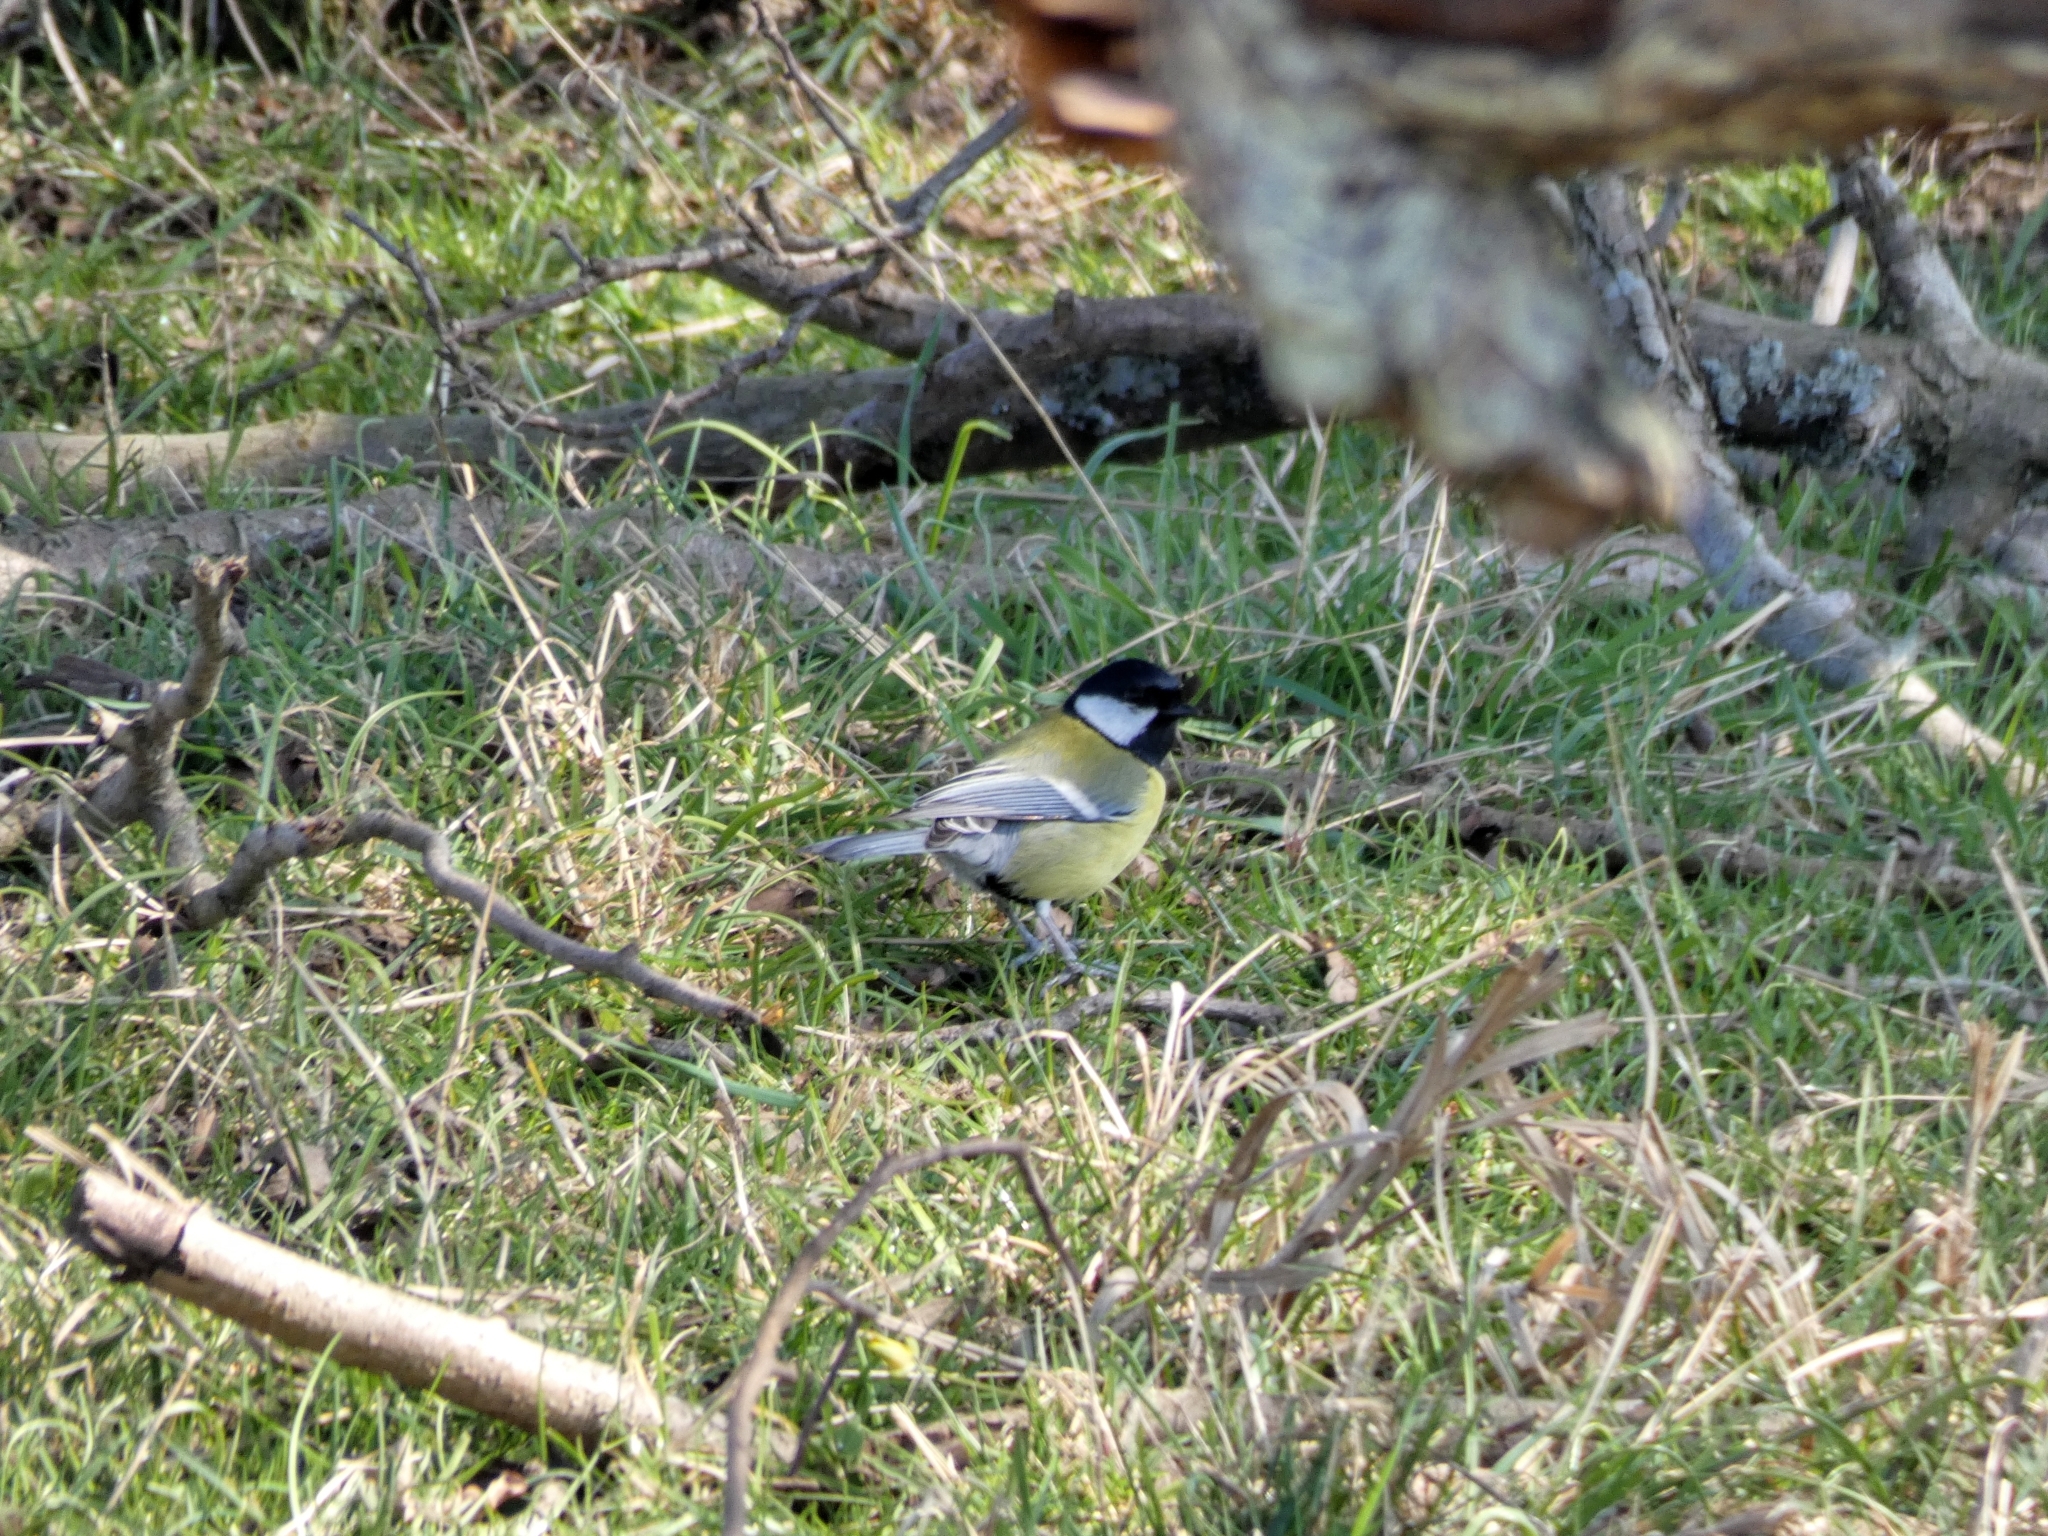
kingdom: Animalia
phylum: Chordata
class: Aves
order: Passeriformes
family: Paridae
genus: Parus
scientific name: Parus major
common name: Great tit
